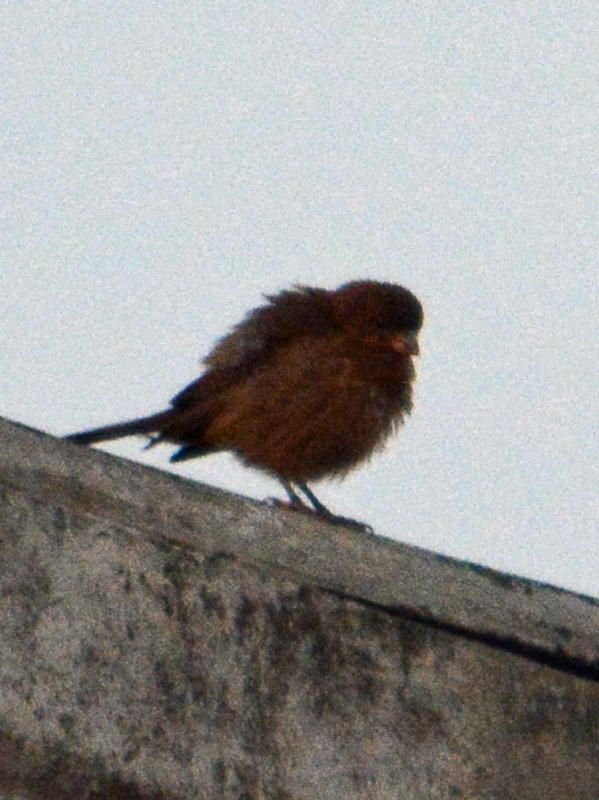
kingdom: Animalia
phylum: Chordata
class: Aves
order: Passeriformes
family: Fringillidae
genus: Haemorhous
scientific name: Haemorhous mexicanus
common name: House finch
